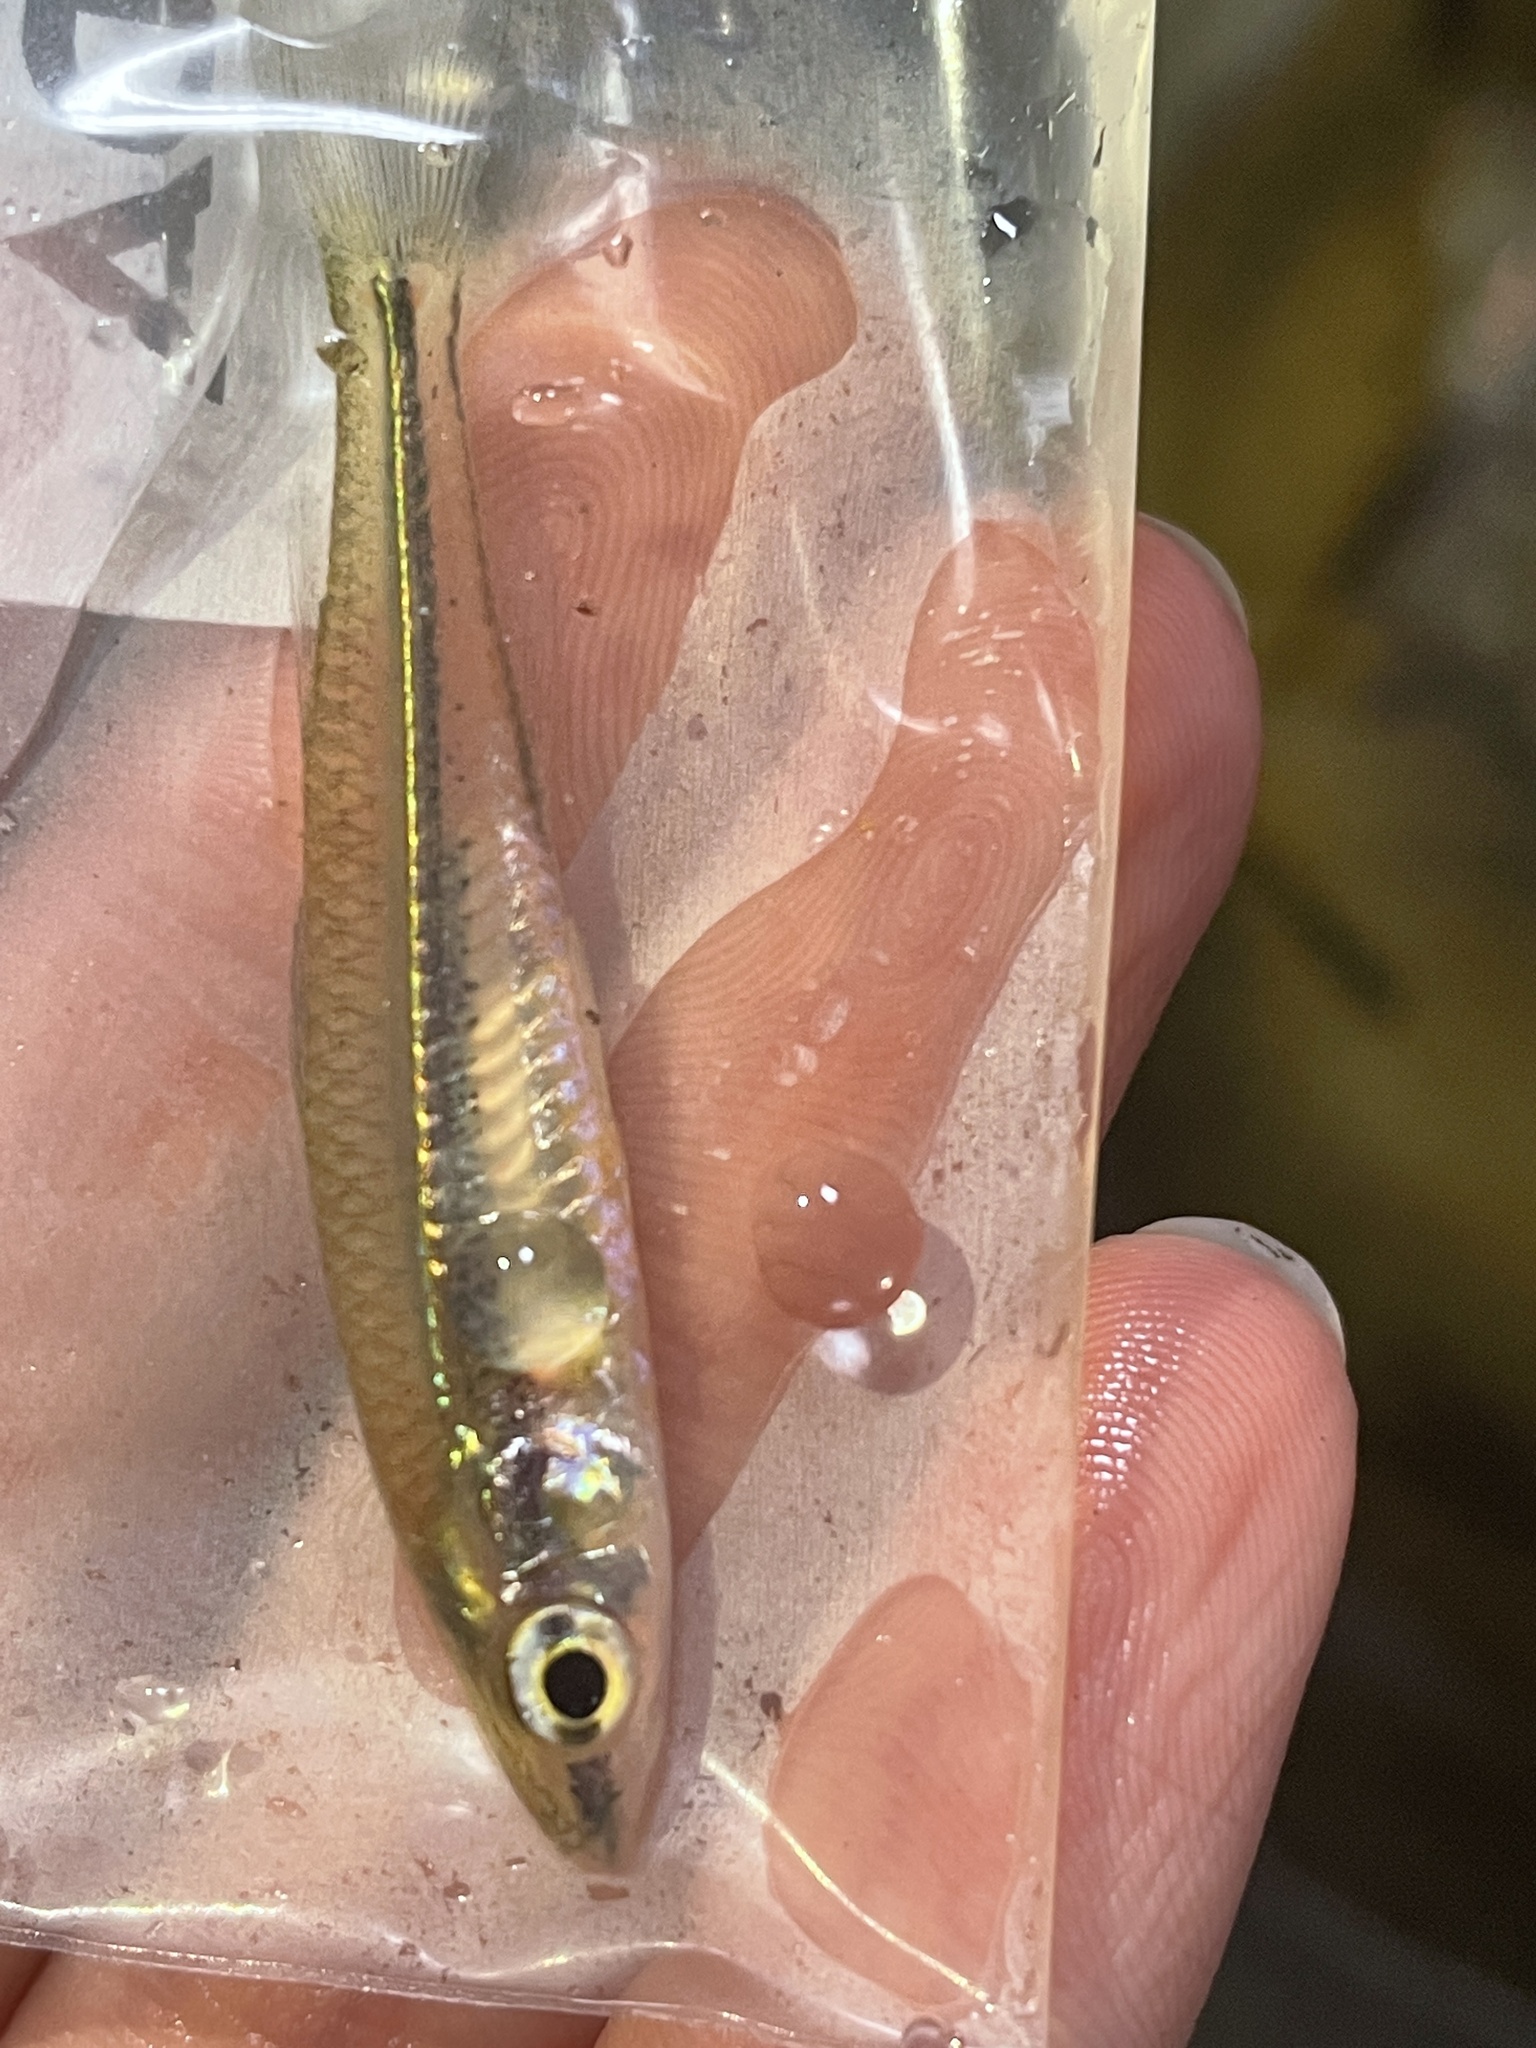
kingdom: Animalia
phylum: Chordata
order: Atheriniformes
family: Atherinidae
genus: Craterocephalus
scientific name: Craterocephalus fulvus
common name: Tawny hardyhead
